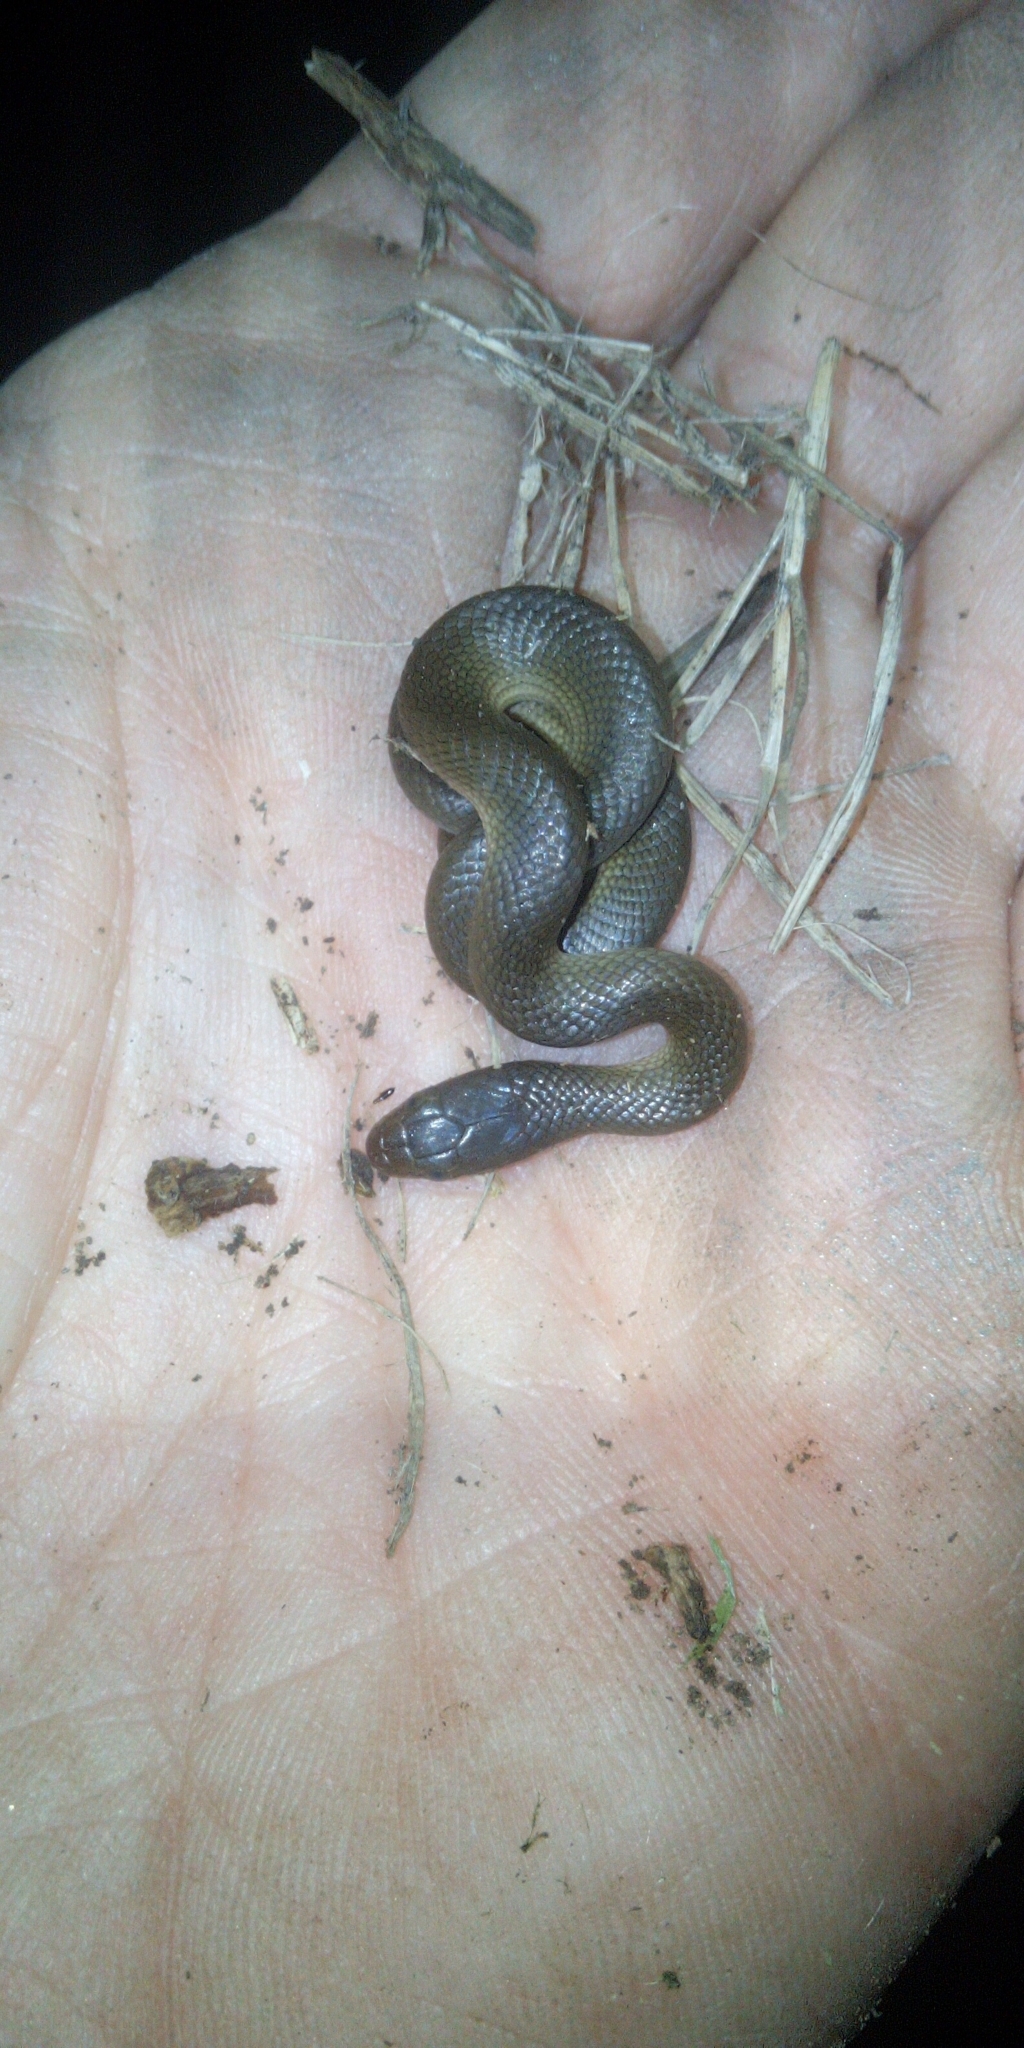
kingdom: Animalia
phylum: Chordata
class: Squamata
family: Lamprophiidae
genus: Lycodonomorphus
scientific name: Lycodonomorphus rufulus
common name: Brown water snake
